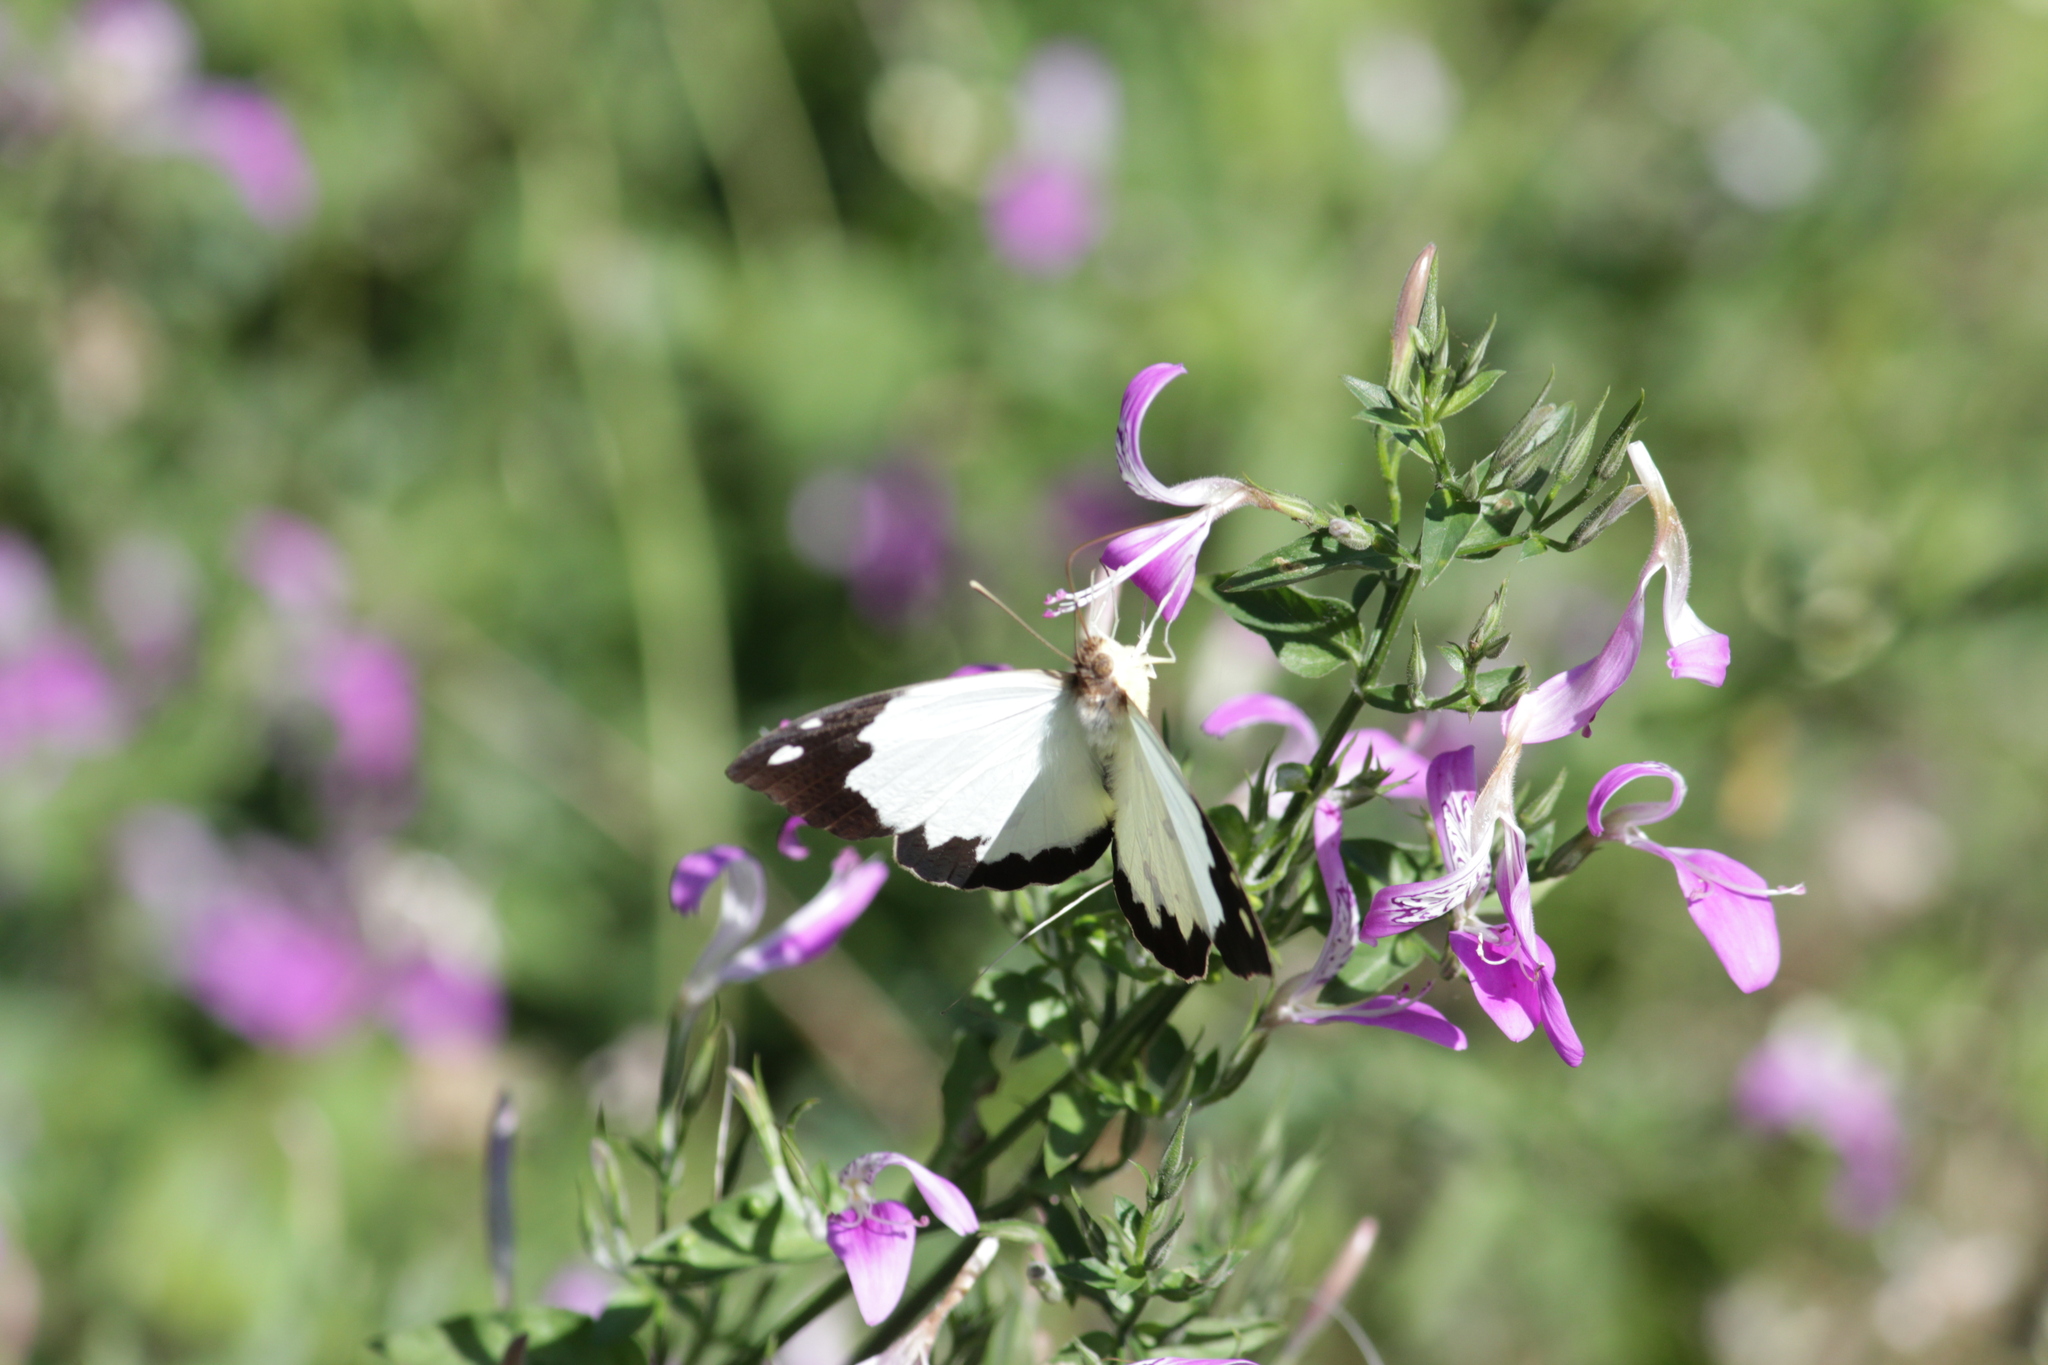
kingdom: Animalia
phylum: Arthropoda
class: Insecta
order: Lepidoptera
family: Pieridae
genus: Eronia
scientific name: Eronia cleodora
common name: Vine-leaf vagrant
